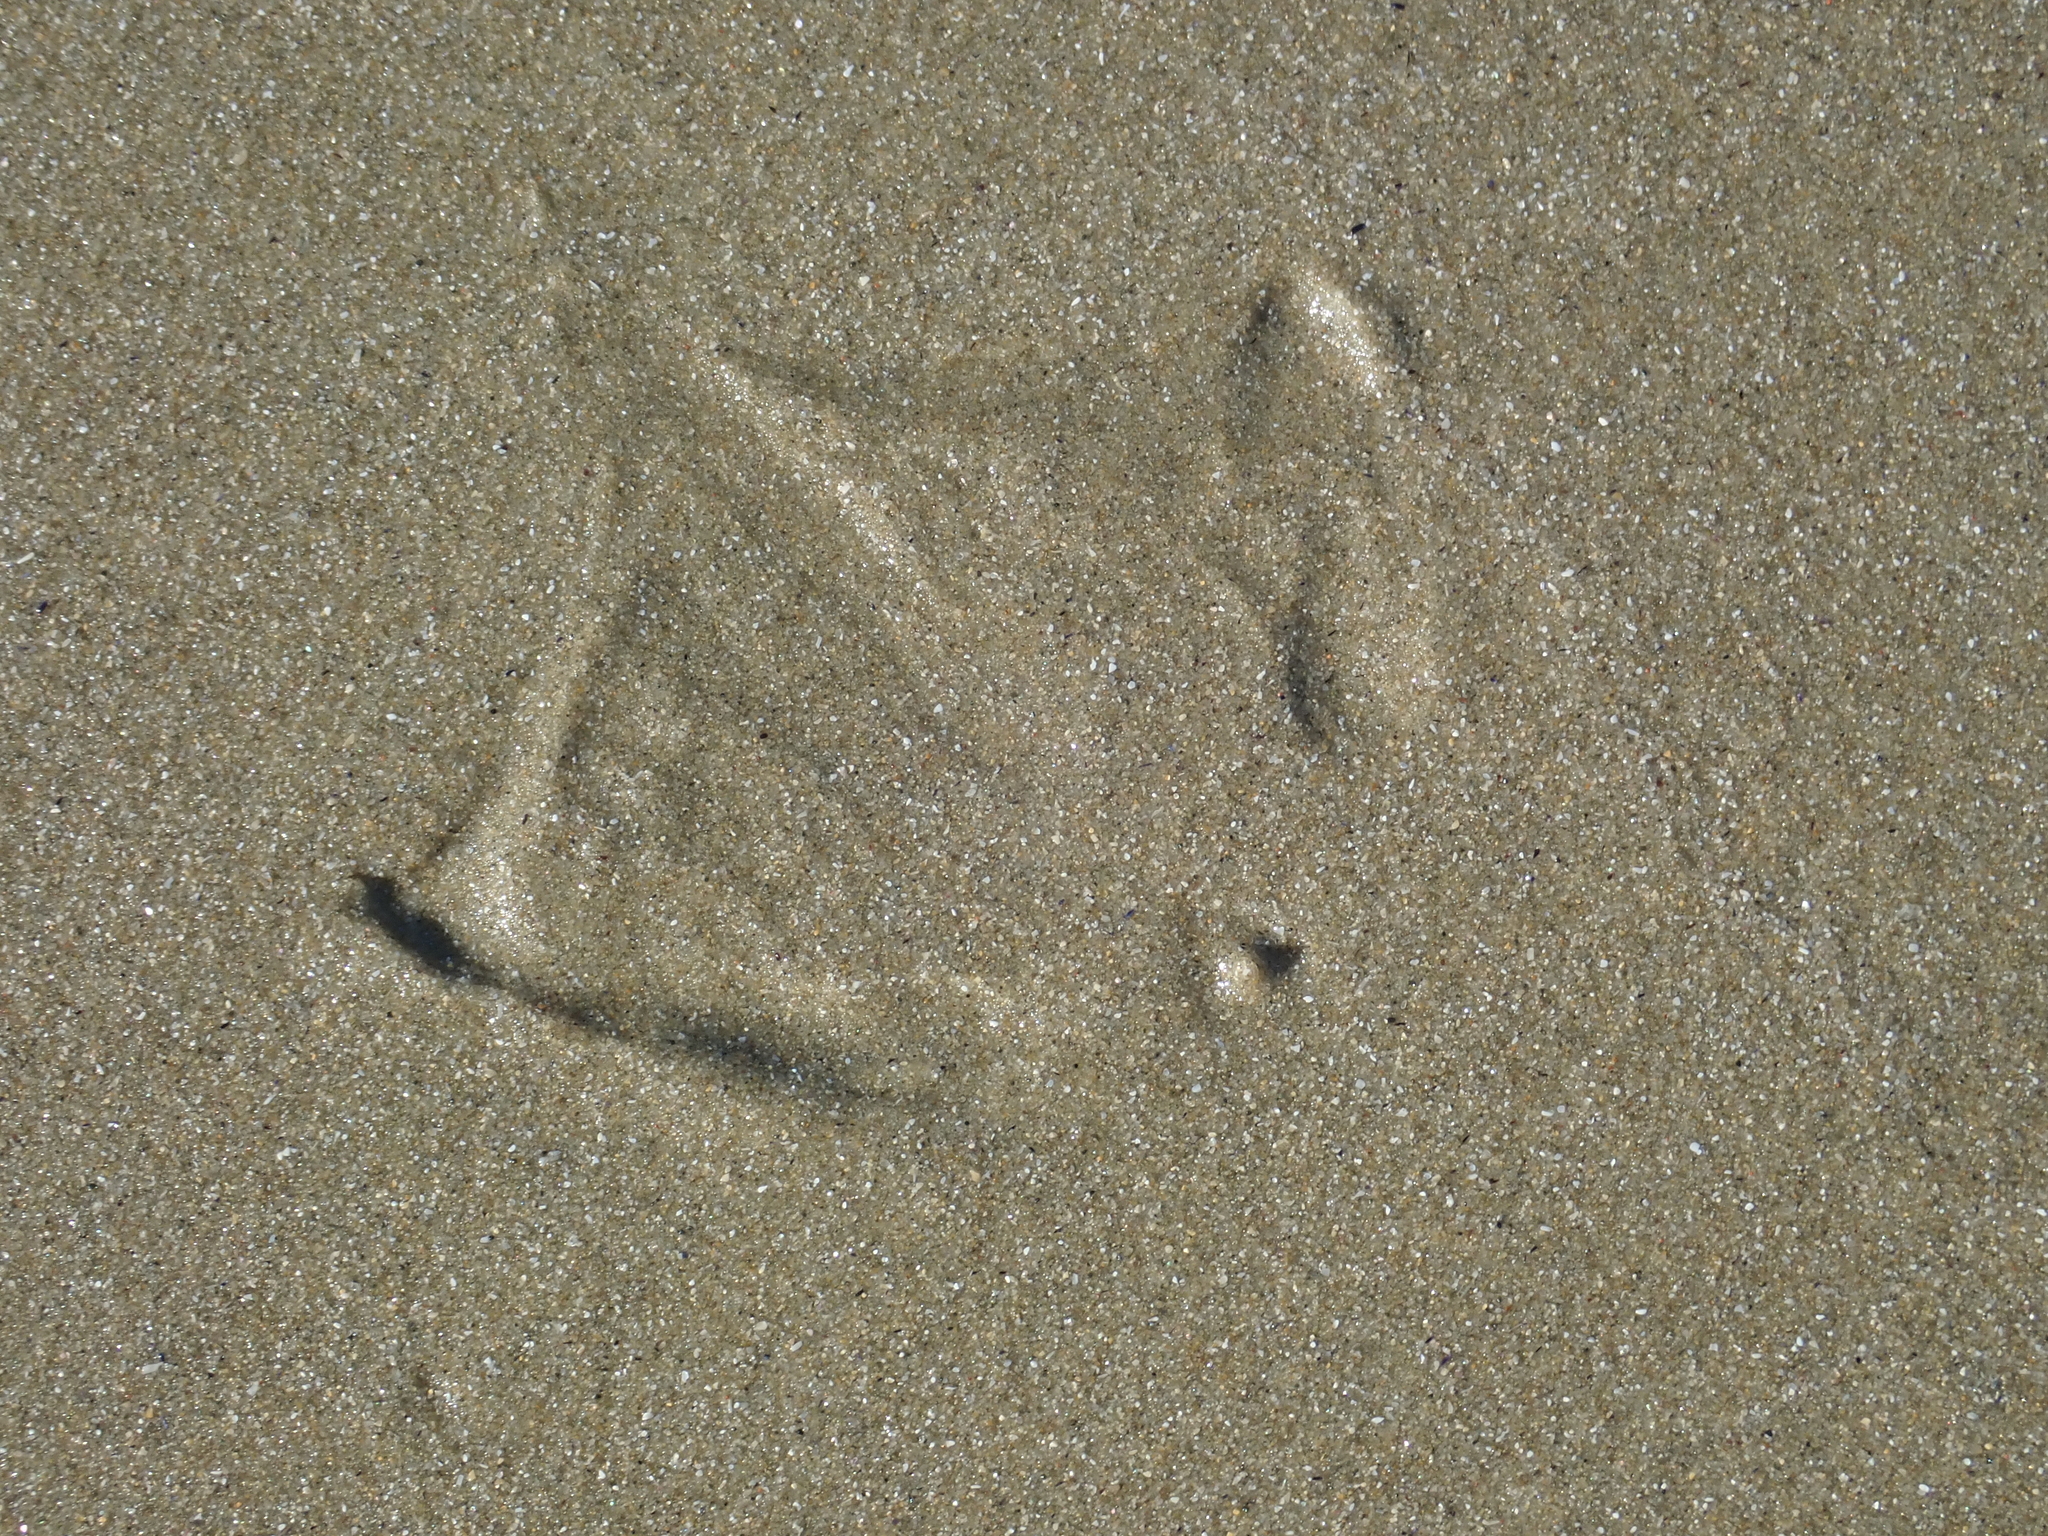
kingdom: Animalia
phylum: Chordata
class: Aves
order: Charadriiformes
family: Laridae
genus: Larus
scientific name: Larus dominicanus
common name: Kelp gull
